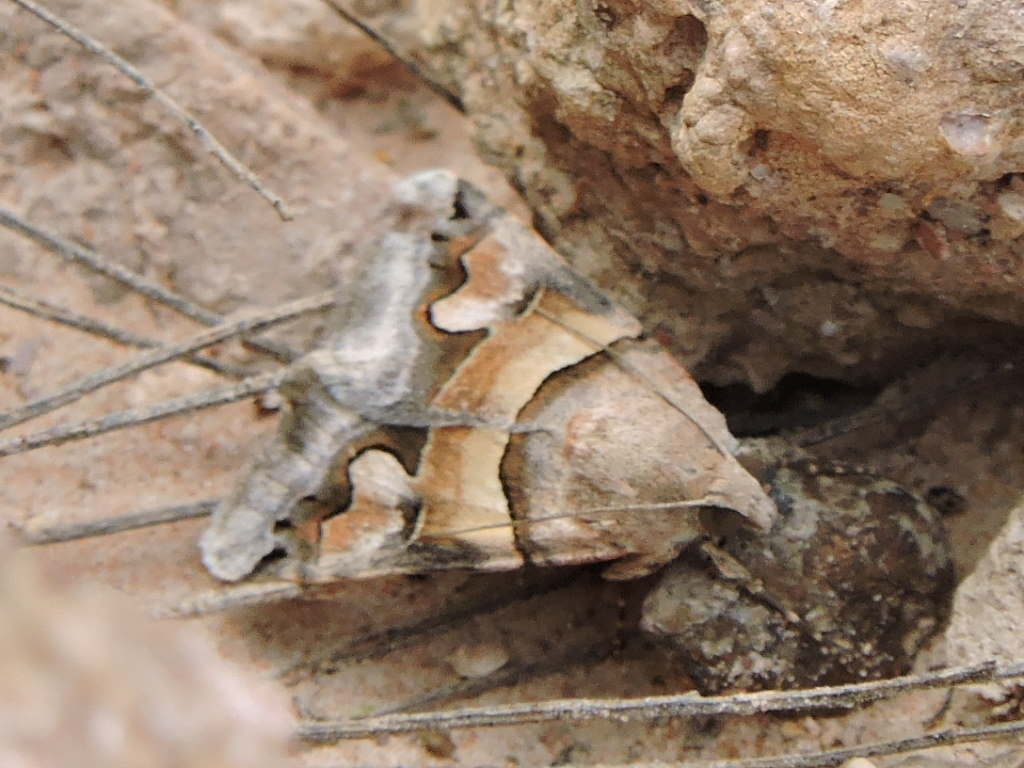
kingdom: Animalia
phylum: Arthropoda
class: Insecta
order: Lepidoptera
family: Erebidae
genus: Bulia
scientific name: Bulia deducta
